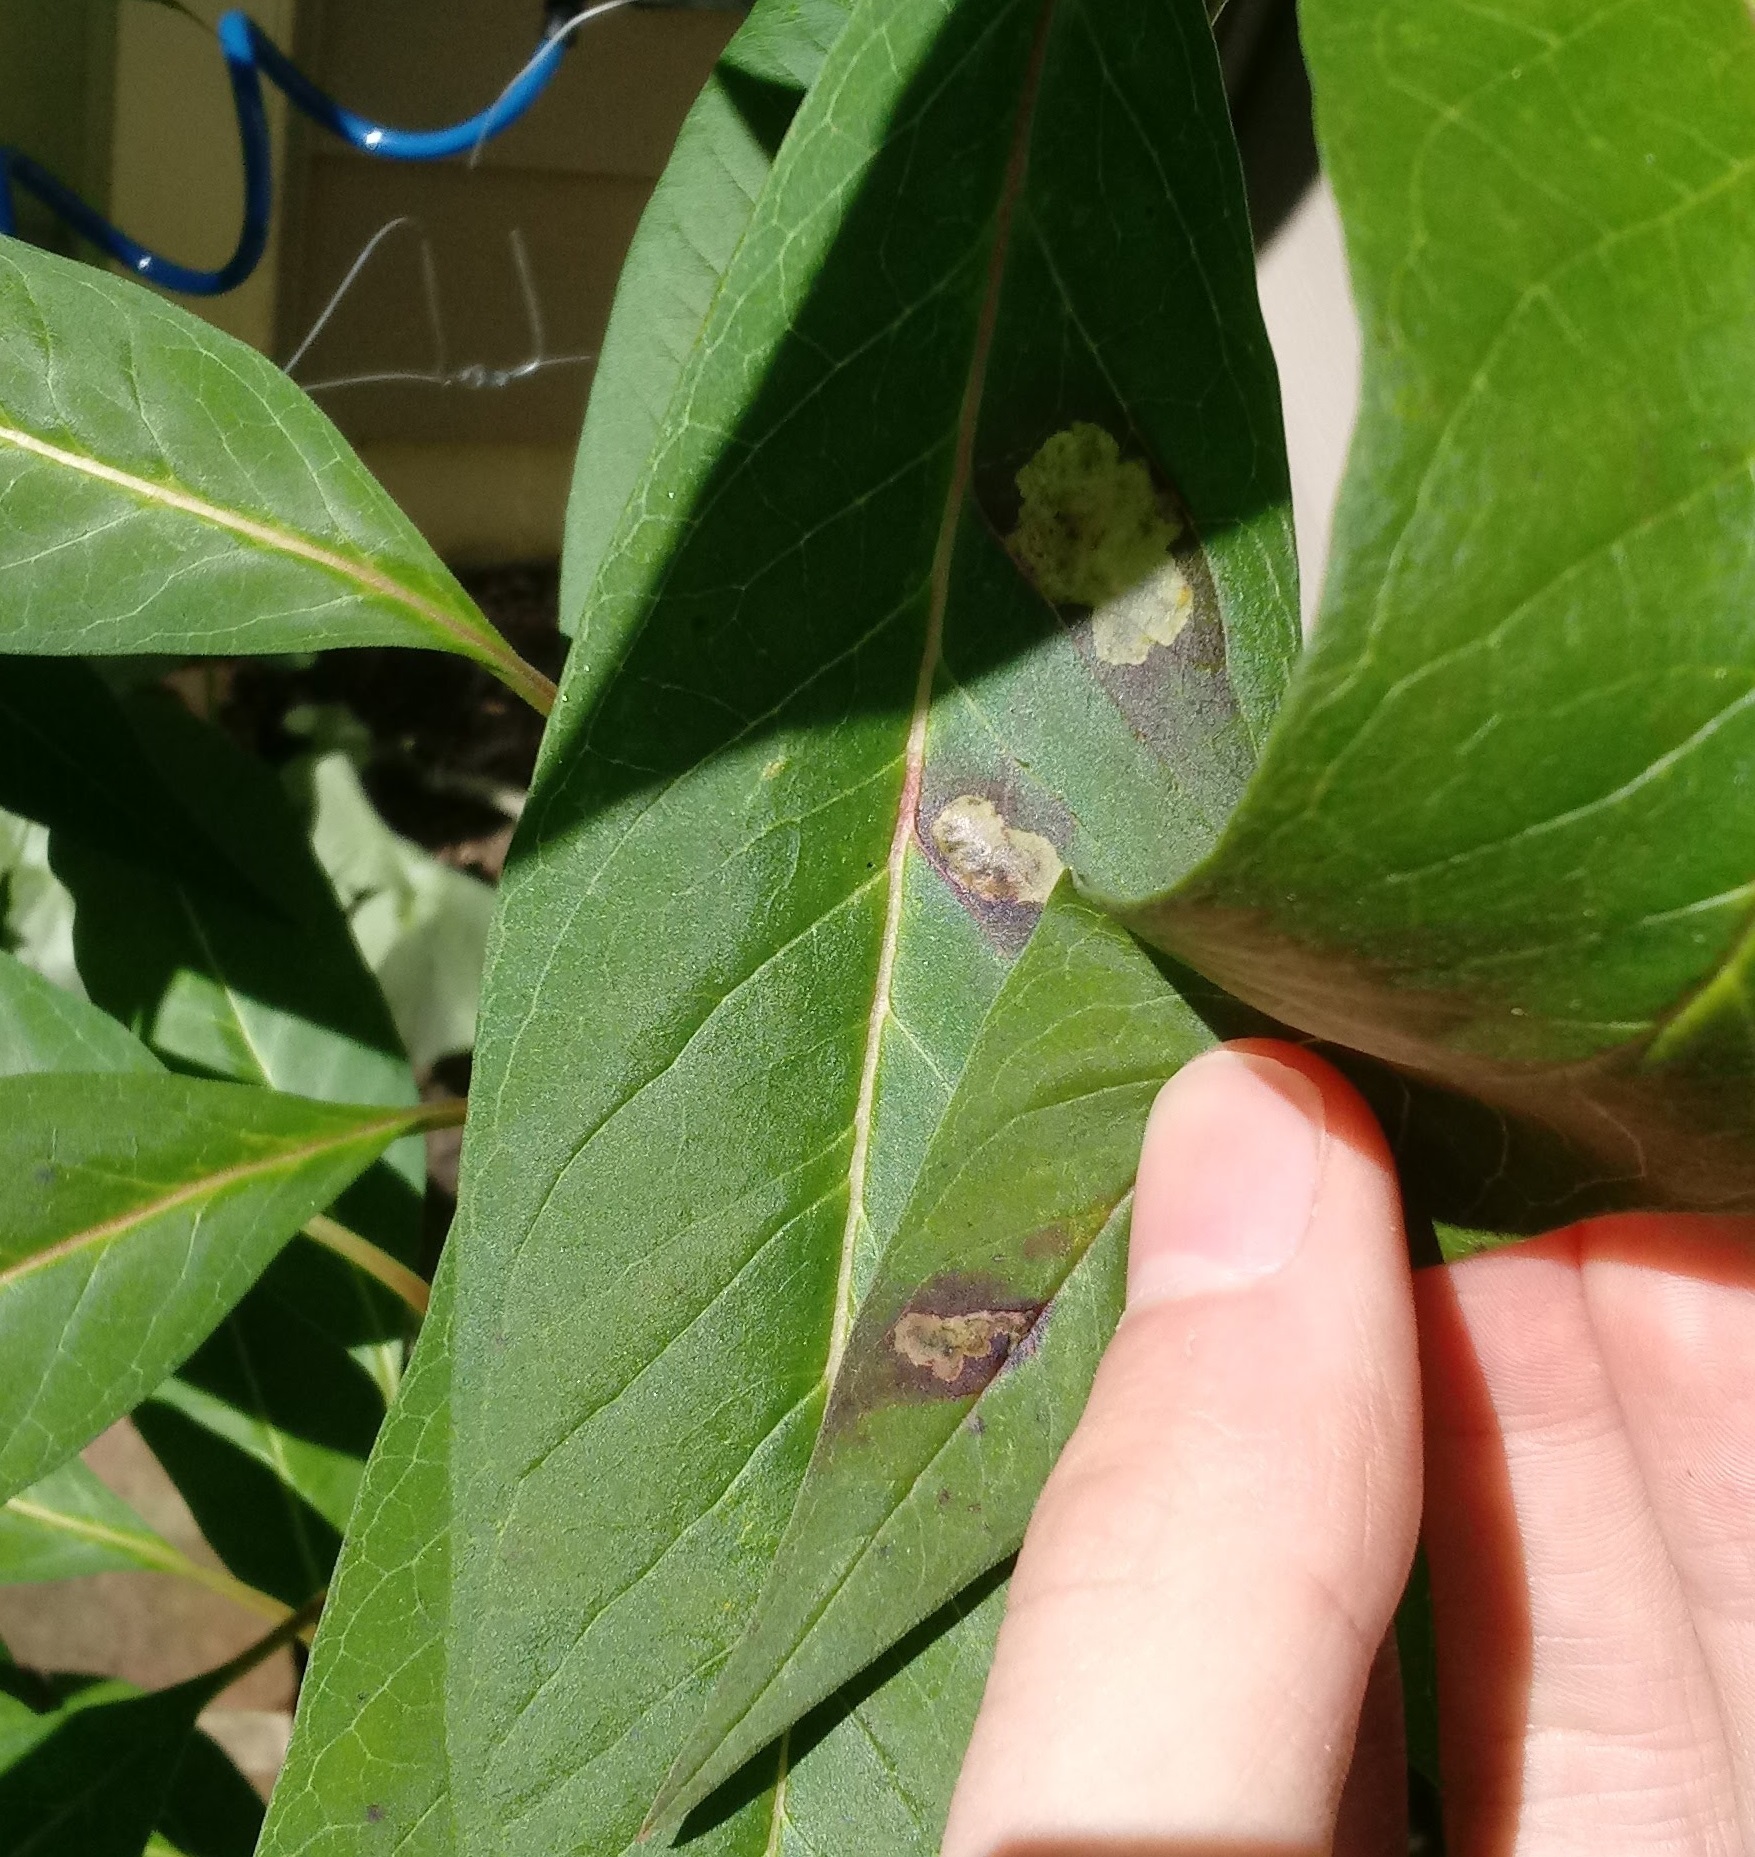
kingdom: Animalia
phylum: Arthropoda
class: Insecta
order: Diptera
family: Agromyzidae
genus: Liriomyza
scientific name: Liriomyza asclepiadis
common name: Milkweed leaf-miner fly
